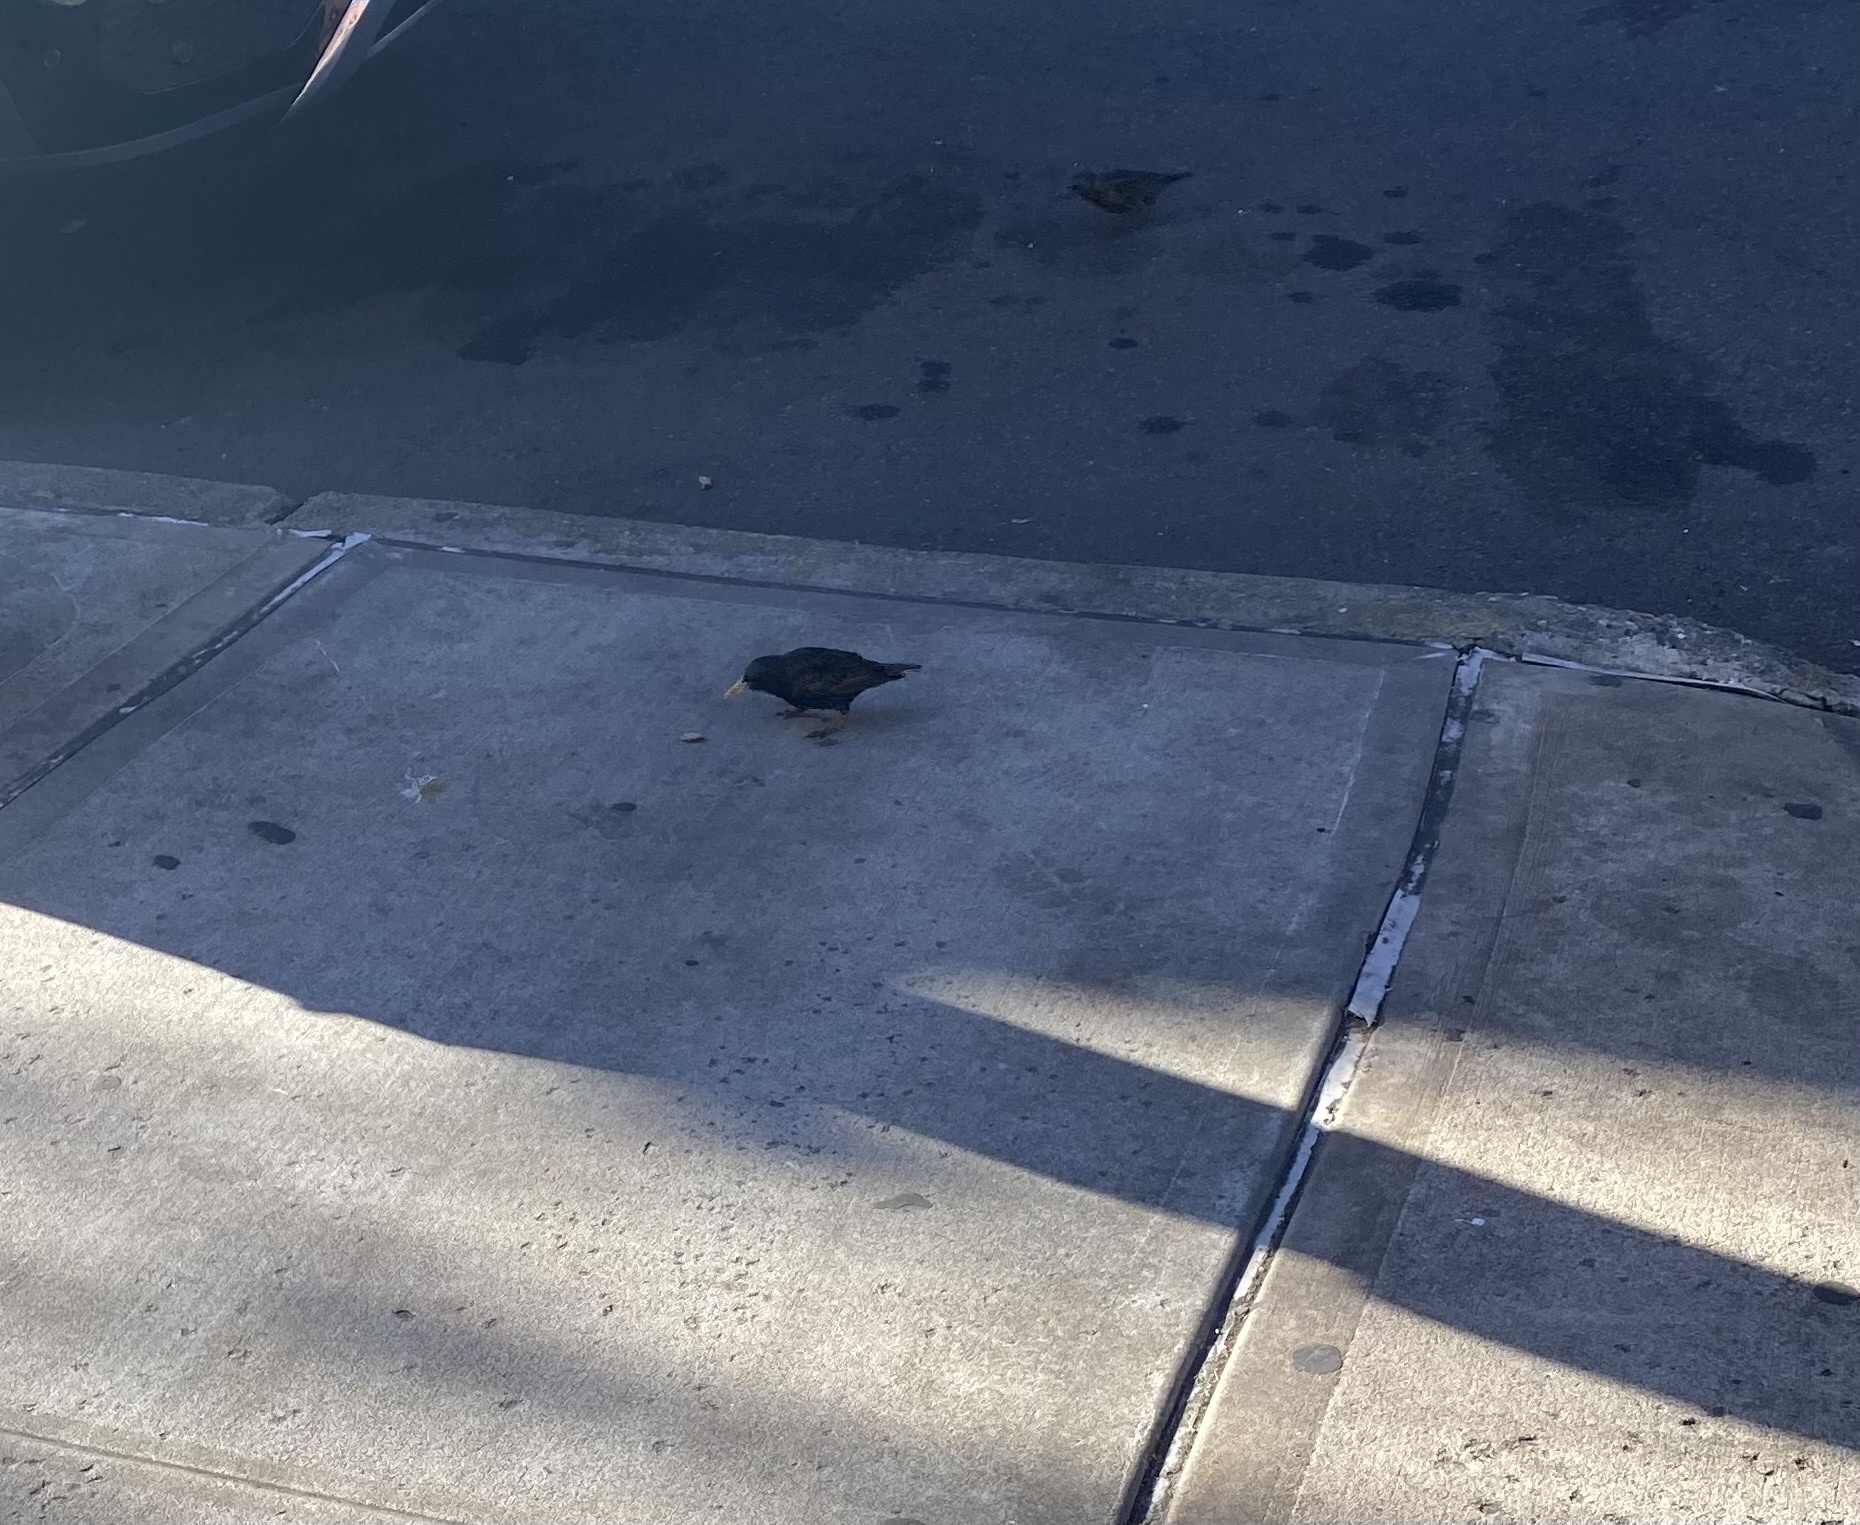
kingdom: Animalia
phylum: Chordata
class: Aves
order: Passeriformes
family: Sturnidae
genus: Sturnus
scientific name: Sturnus vulgaris
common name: Common starling
